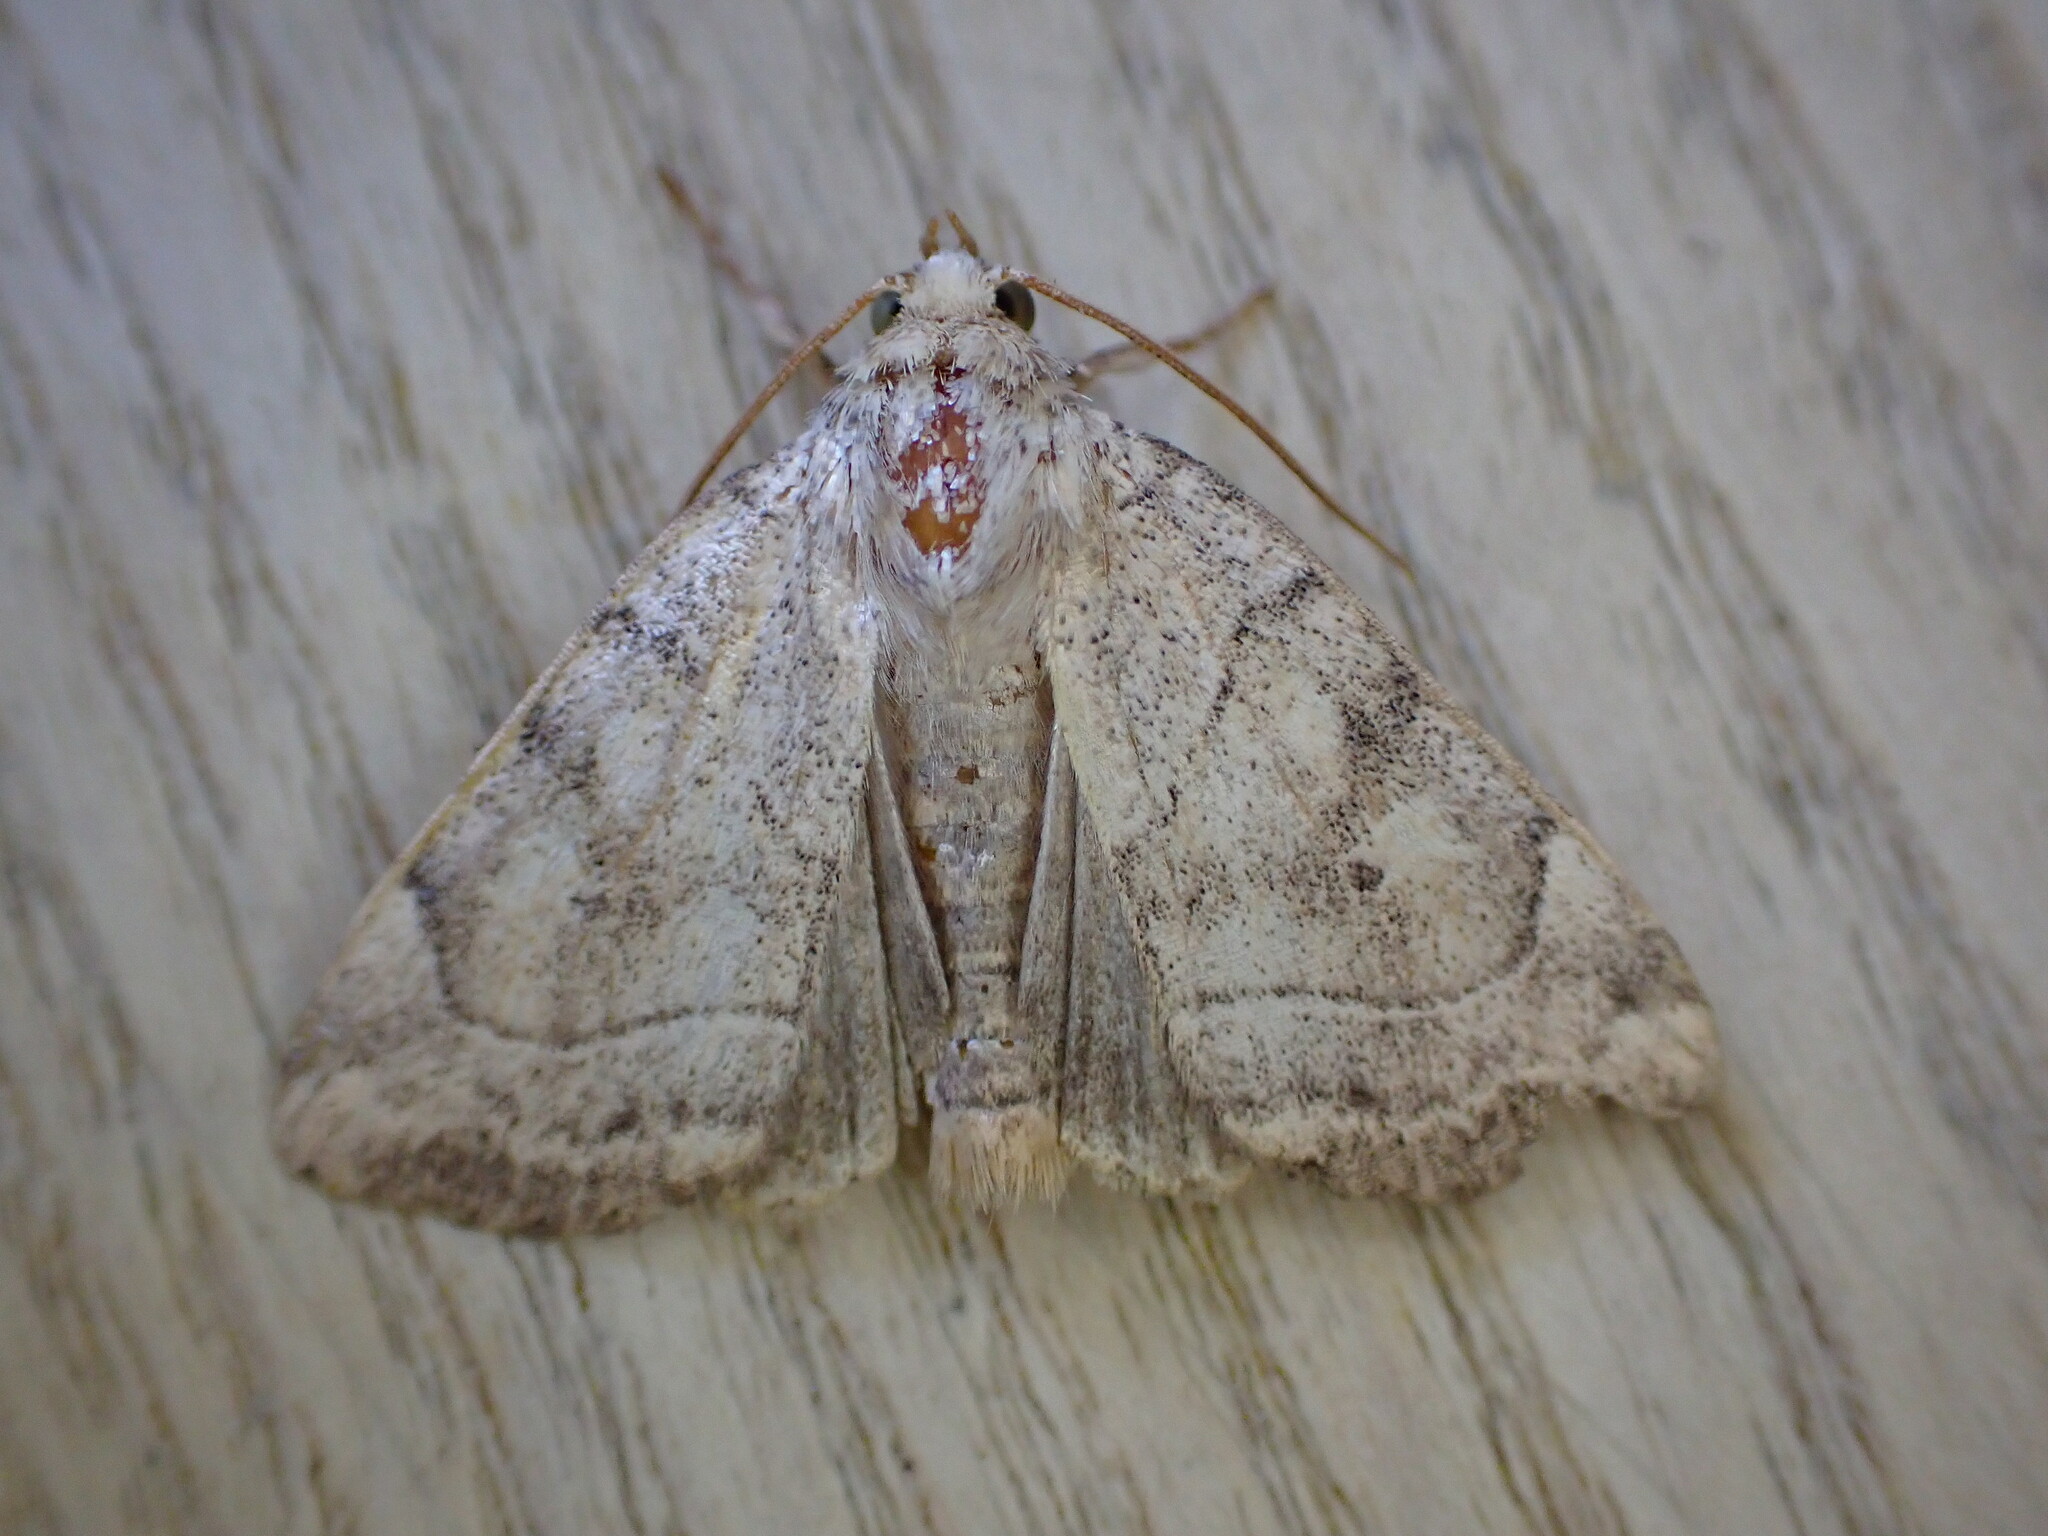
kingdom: Animalia
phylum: Arthropoda
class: Insecta
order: Lepidoptera
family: Noctuidae
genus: Cosmia
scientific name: Cosmia trapezina
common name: Dun-bar
